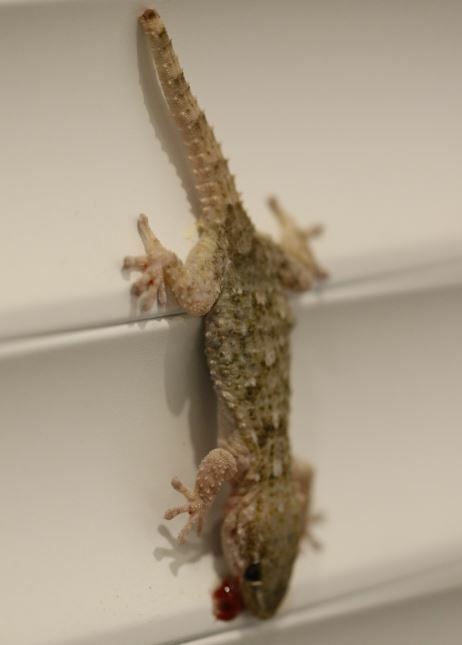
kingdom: Animalia
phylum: Chordata
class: Squamata
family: Phyllodactylidae
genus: Tarentola
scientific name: Tarentola mauritanica
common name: Moorish gecko
